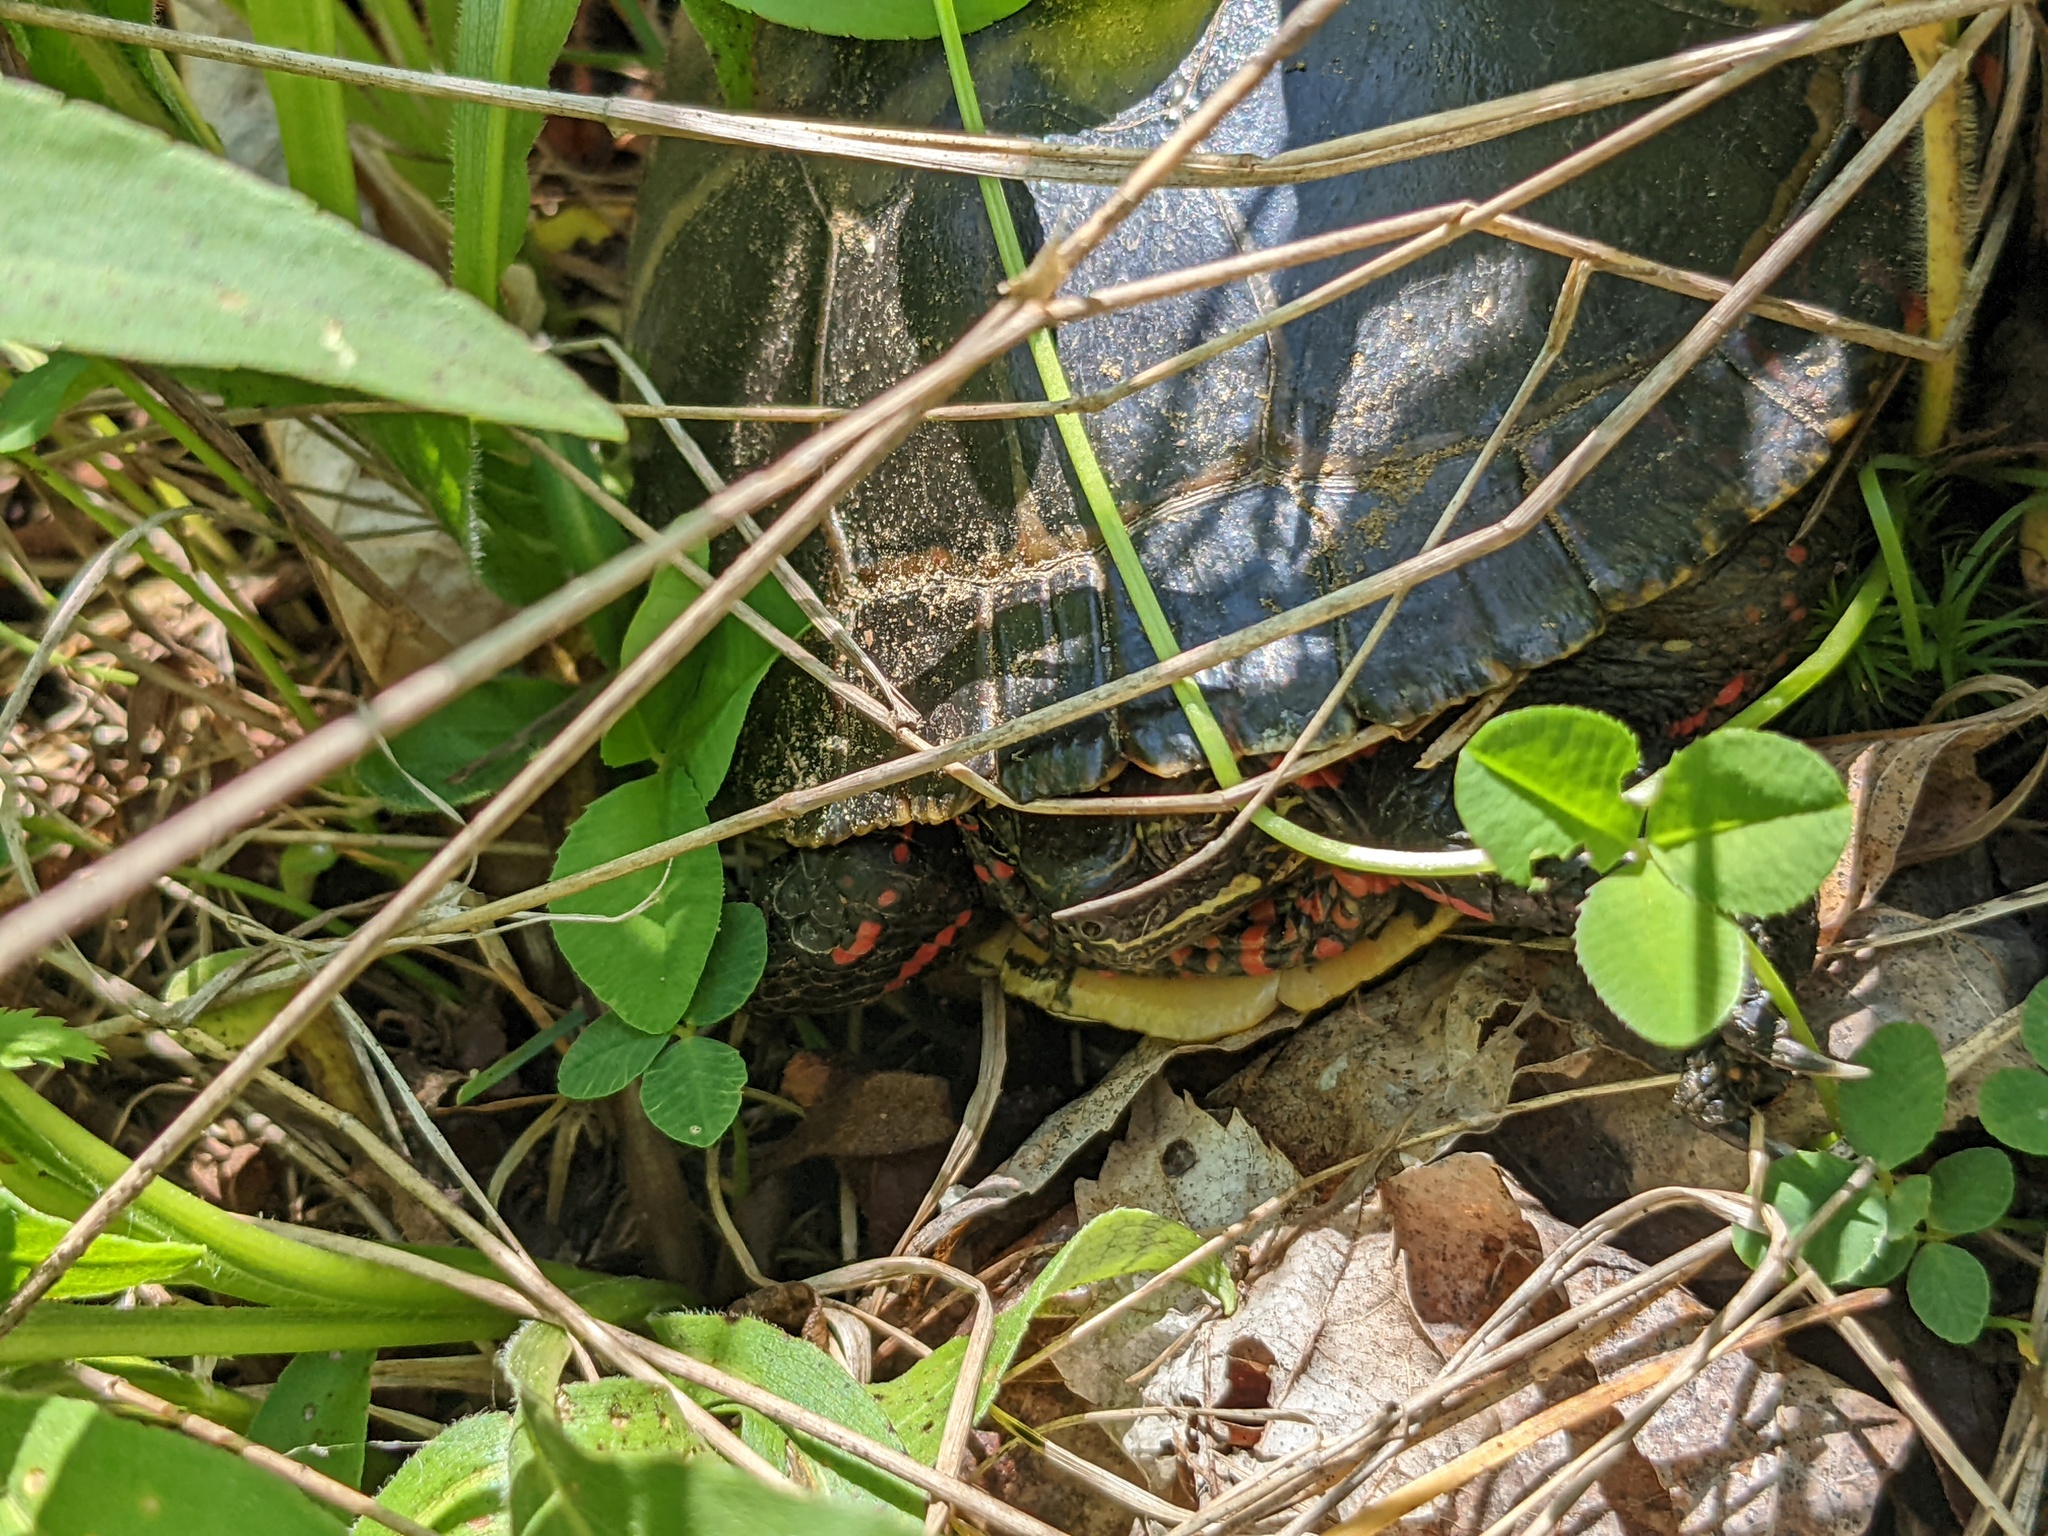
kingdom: Animalia
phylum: Chordata
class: Testudines
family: Emydidae
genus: Chrysemys
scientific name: Chrysemys picta
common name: Painted turtle
